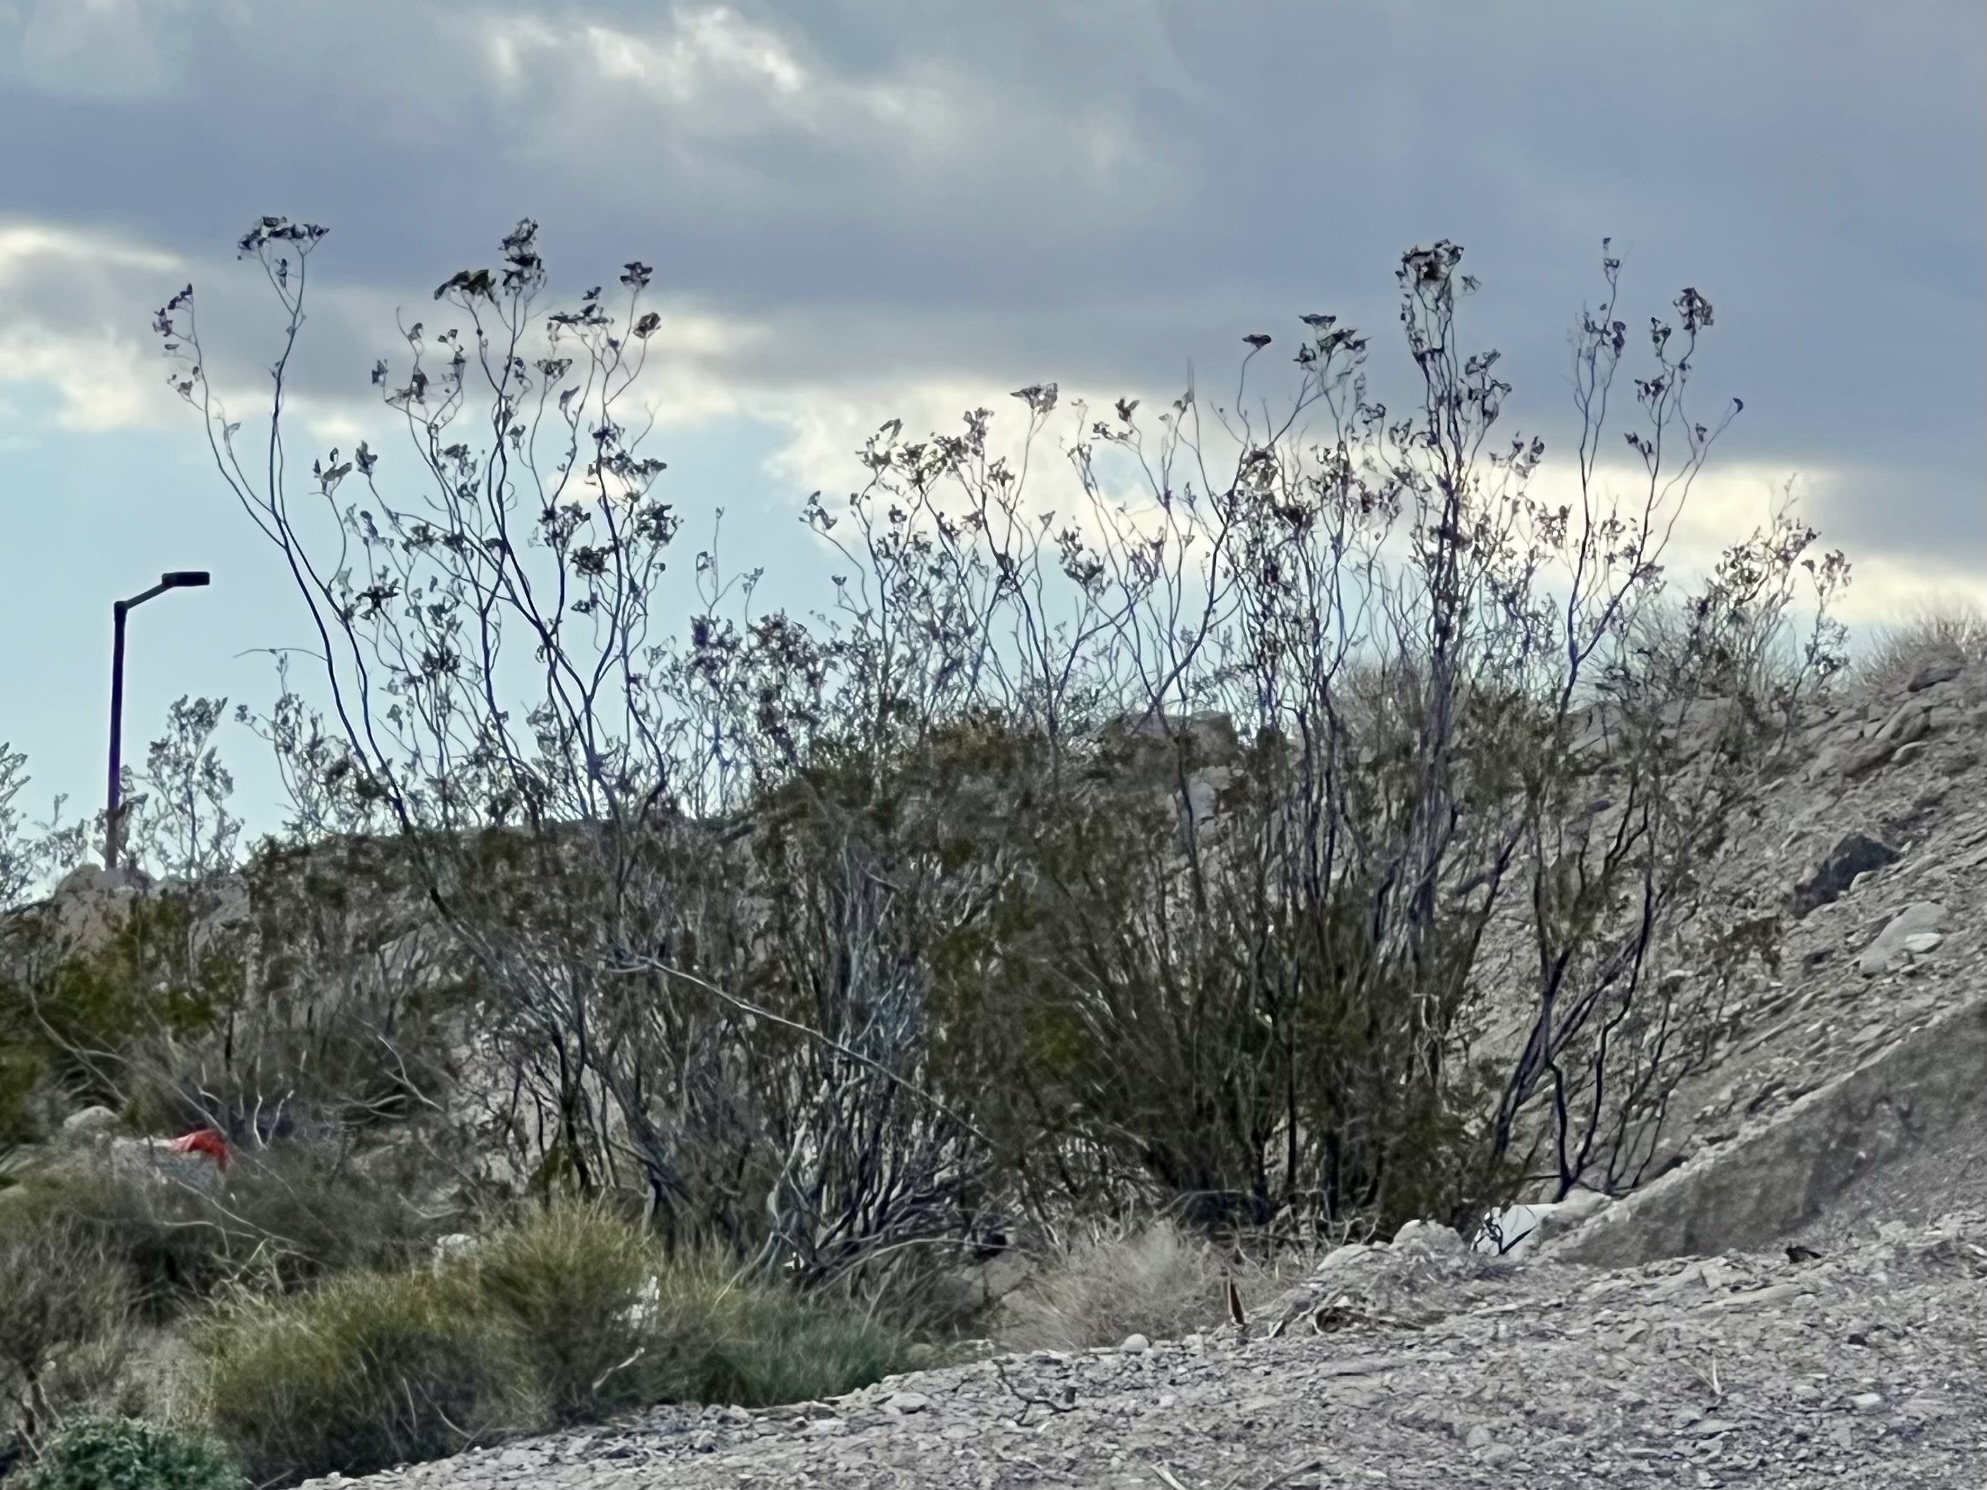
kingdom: Plantae
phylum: Tracheophyta
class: Magnoliopsida
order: Zygophyllales
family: Zygophyllaceae
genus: Larrea
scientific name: Larrea tridentata
